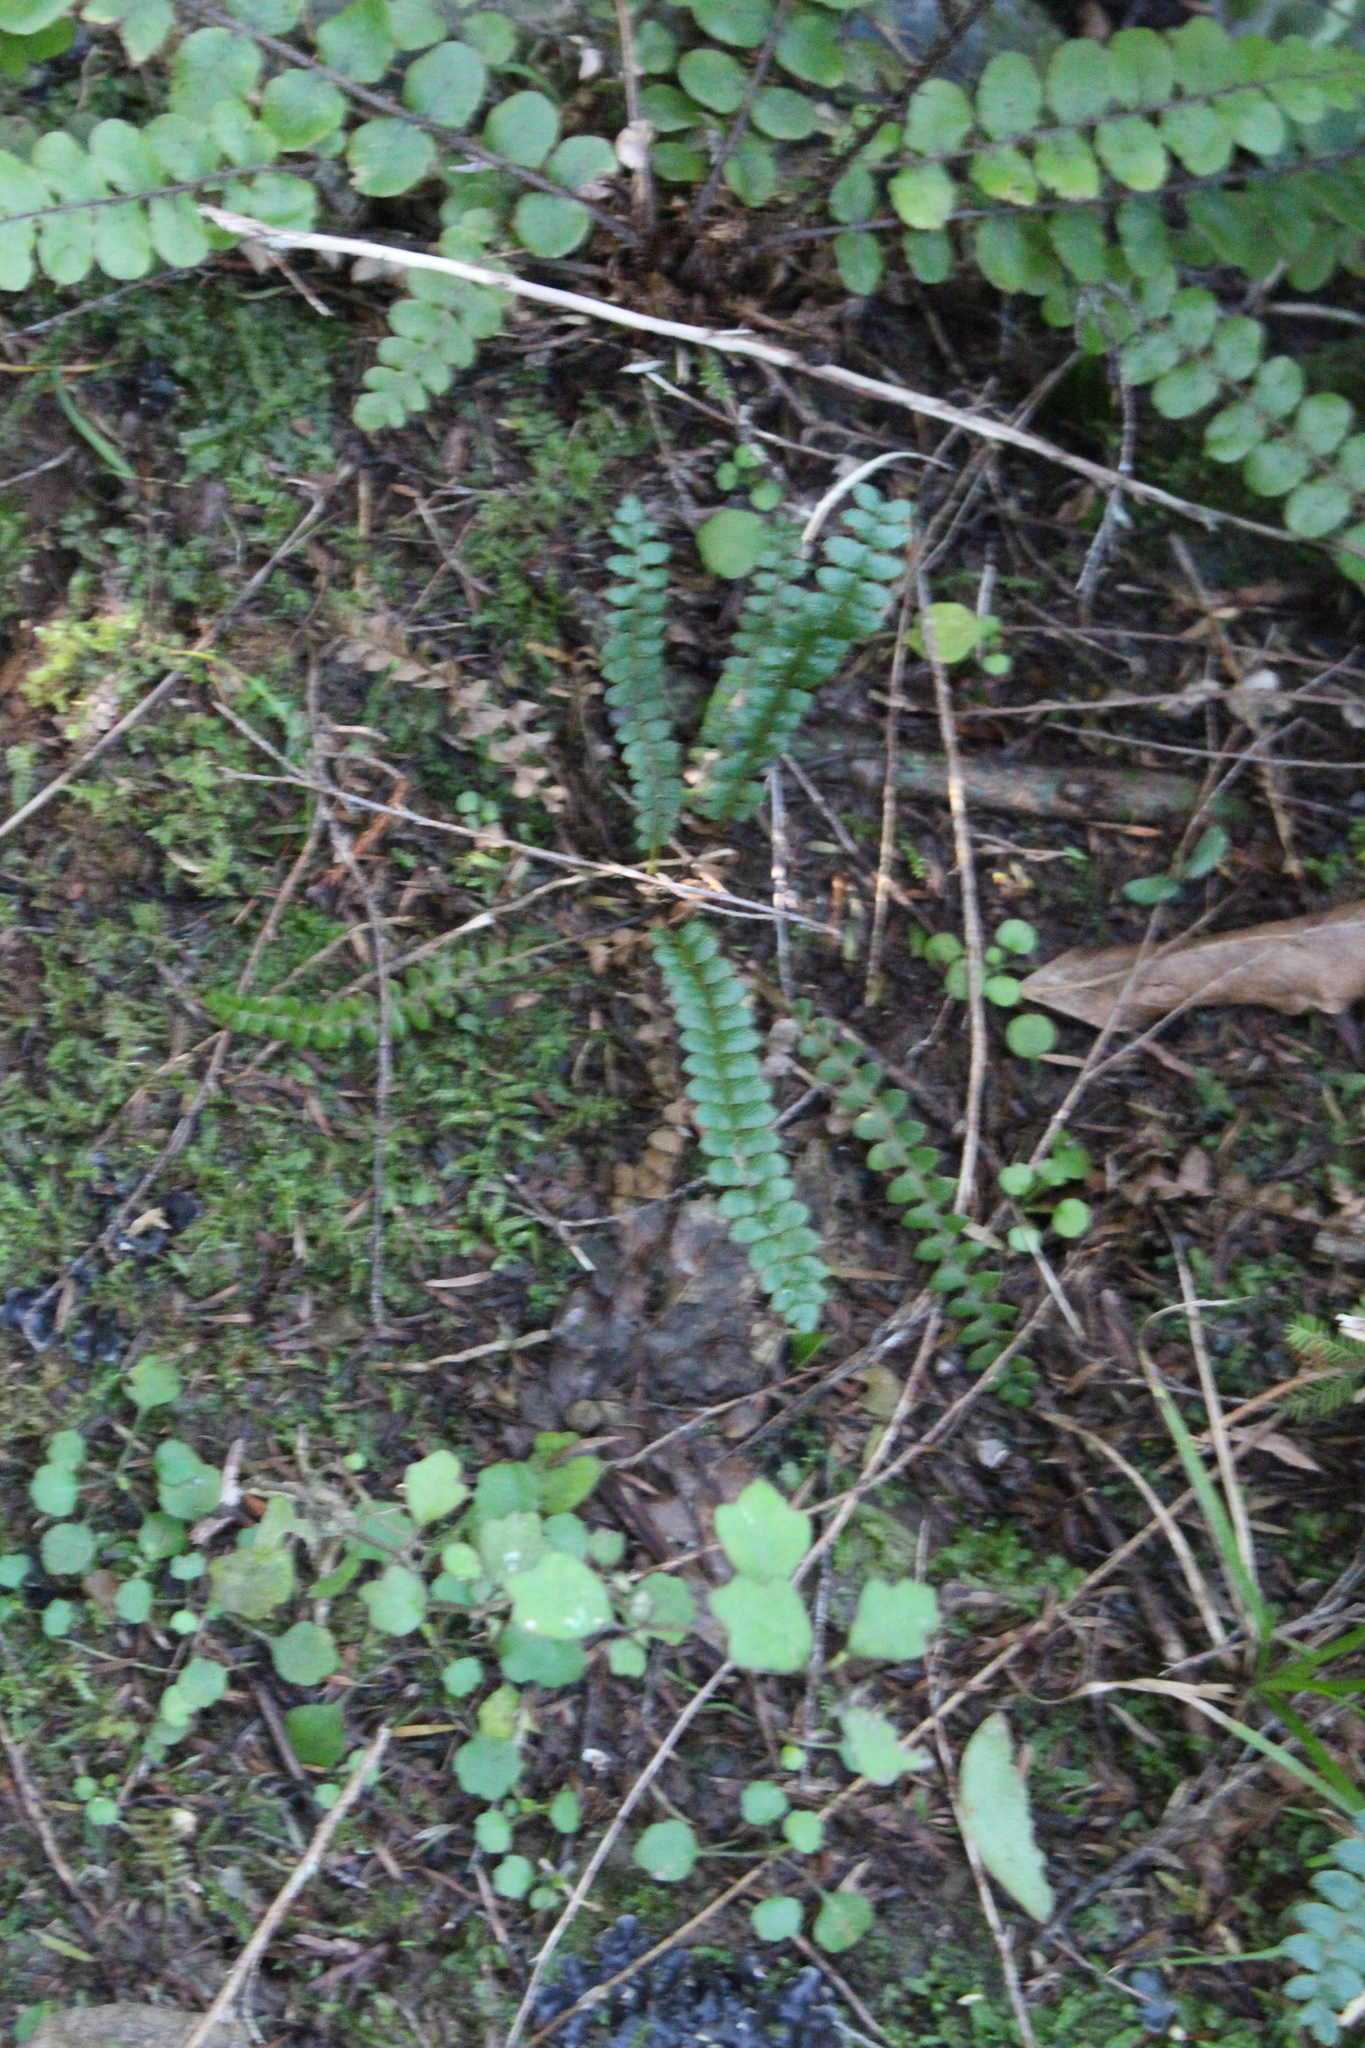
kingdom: Plantae
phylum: Tracheophyta
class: Polypodiopsida
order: Polypodiales
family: Blechnaceae
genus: Austroblechnum
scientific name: Austroblechnum penna-marina
